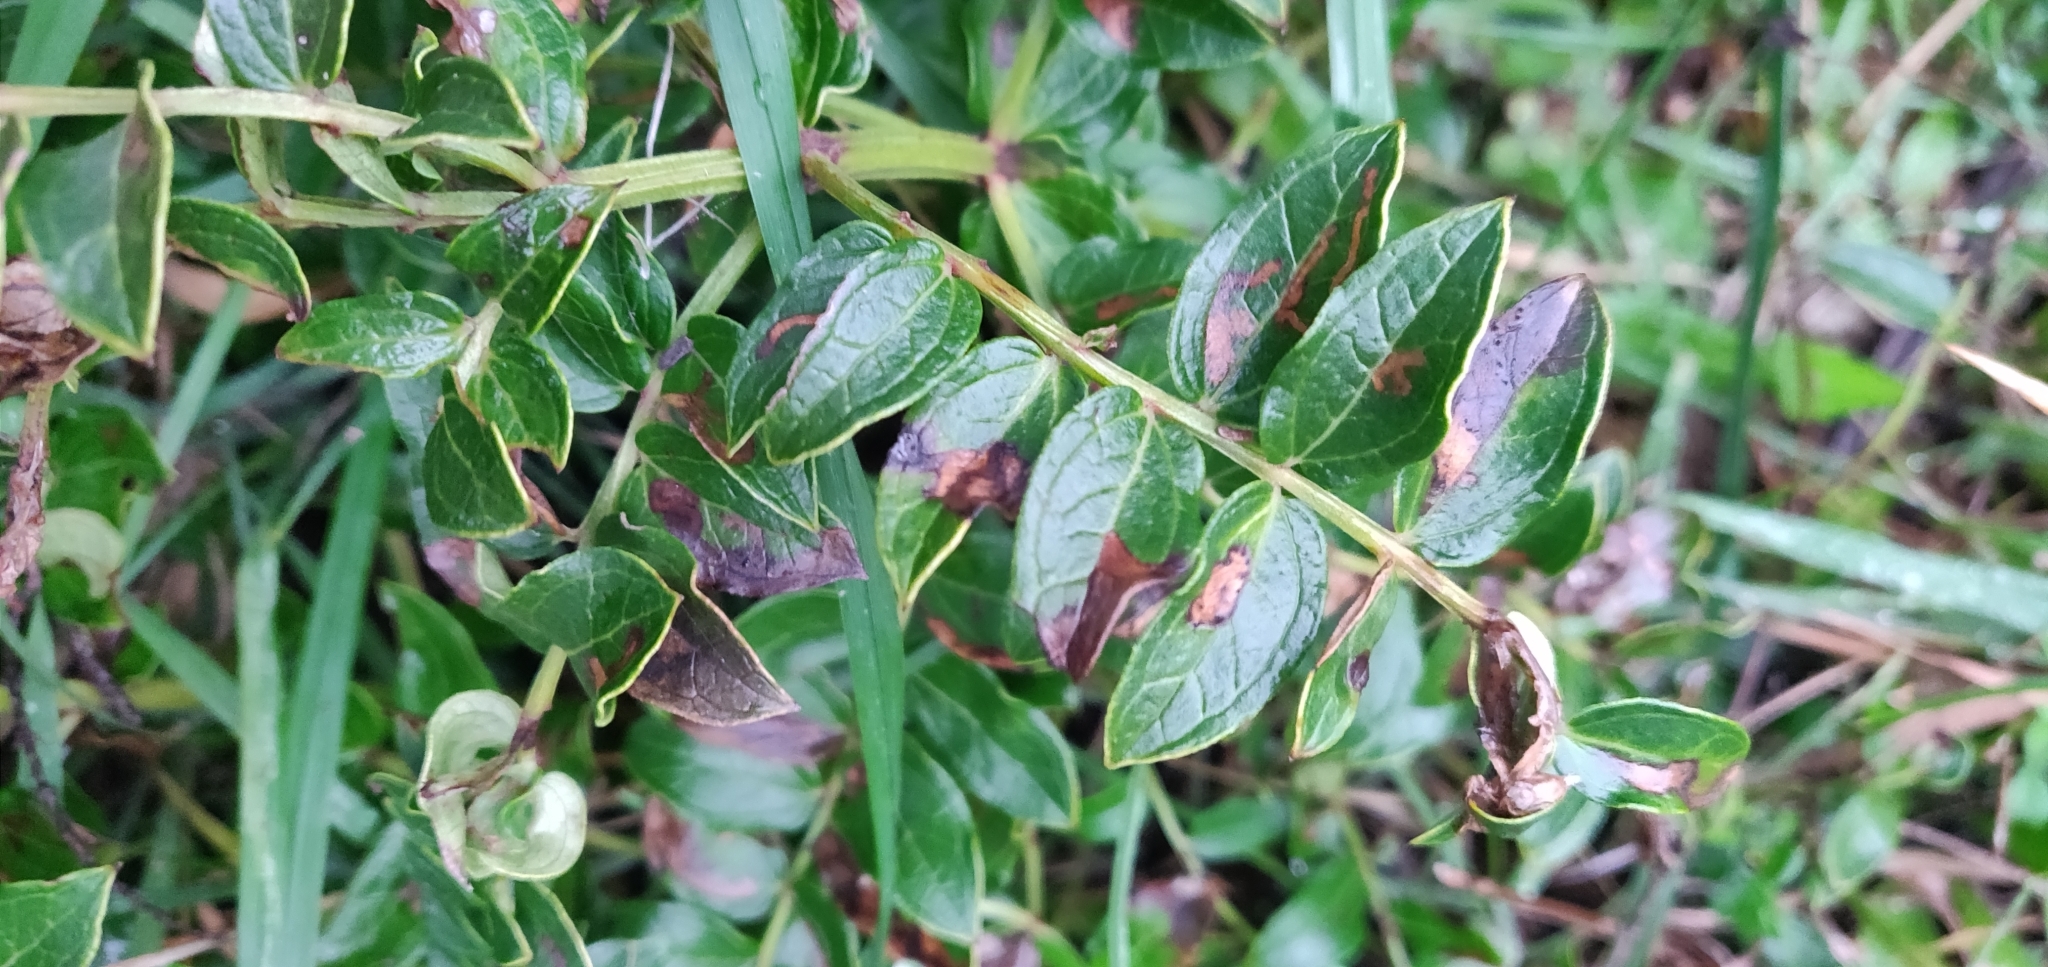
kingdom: Plantae
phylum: Tracheophyta
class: Magnoliopsida
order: Cucurbitales
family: Coriariaceae
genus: Coriaria
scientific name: Coriaria sarmentosa
